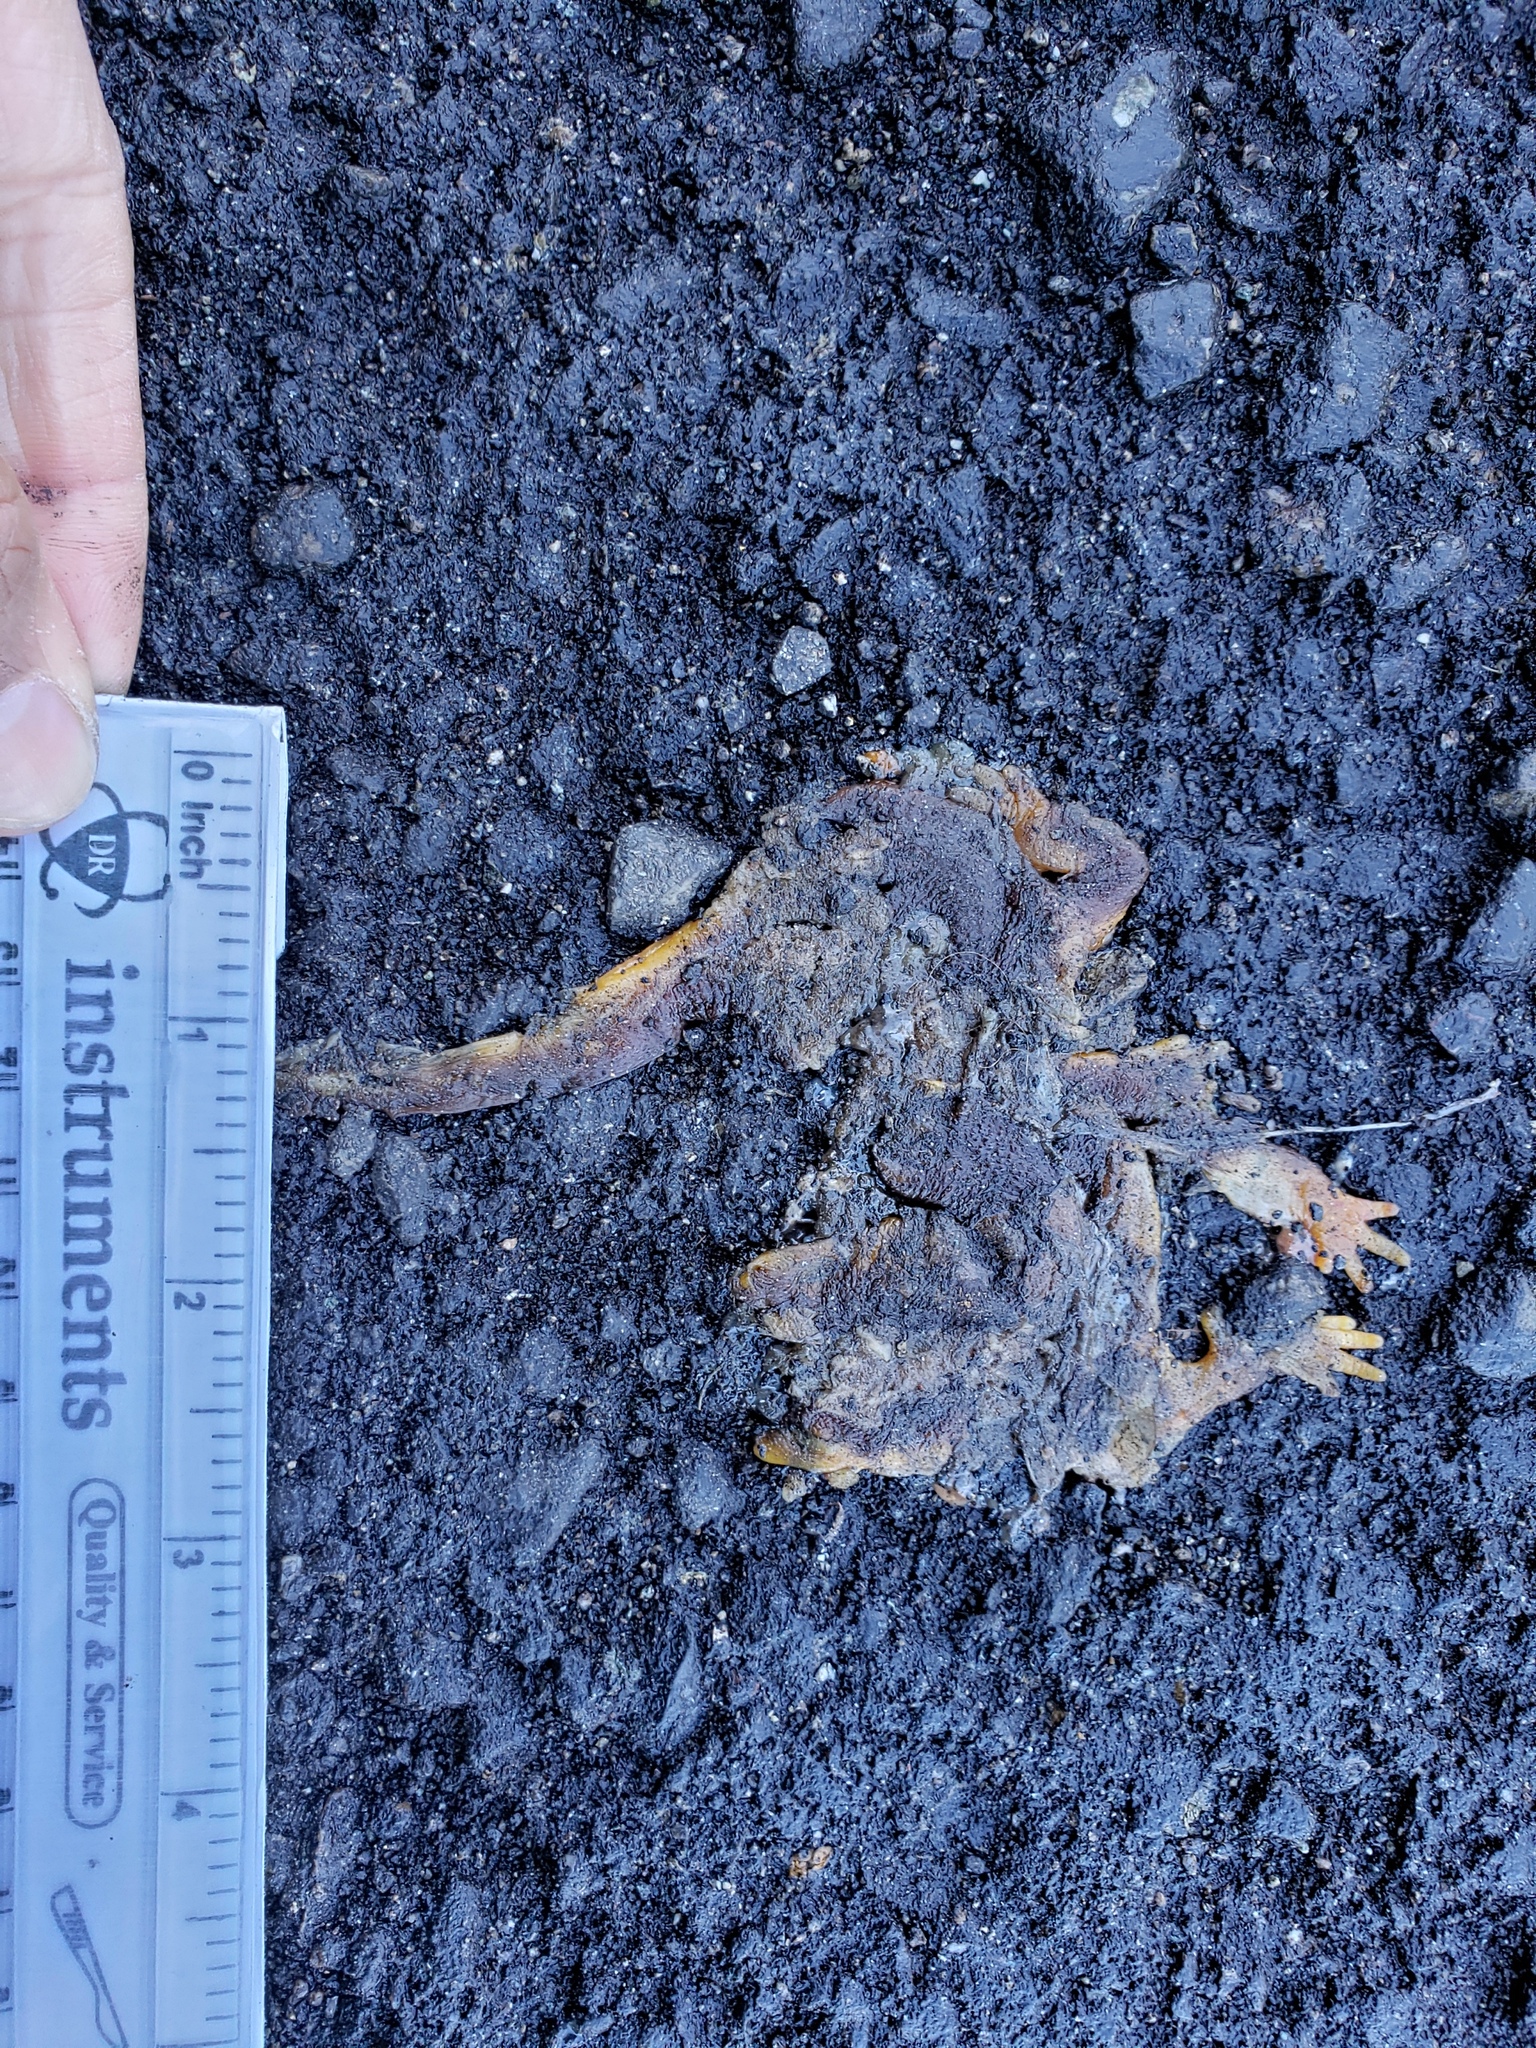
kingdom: Animalia
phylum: Chordata
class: Amphibia
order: Caudata
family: Salamandridae
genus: Taricha
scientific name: Taricha
